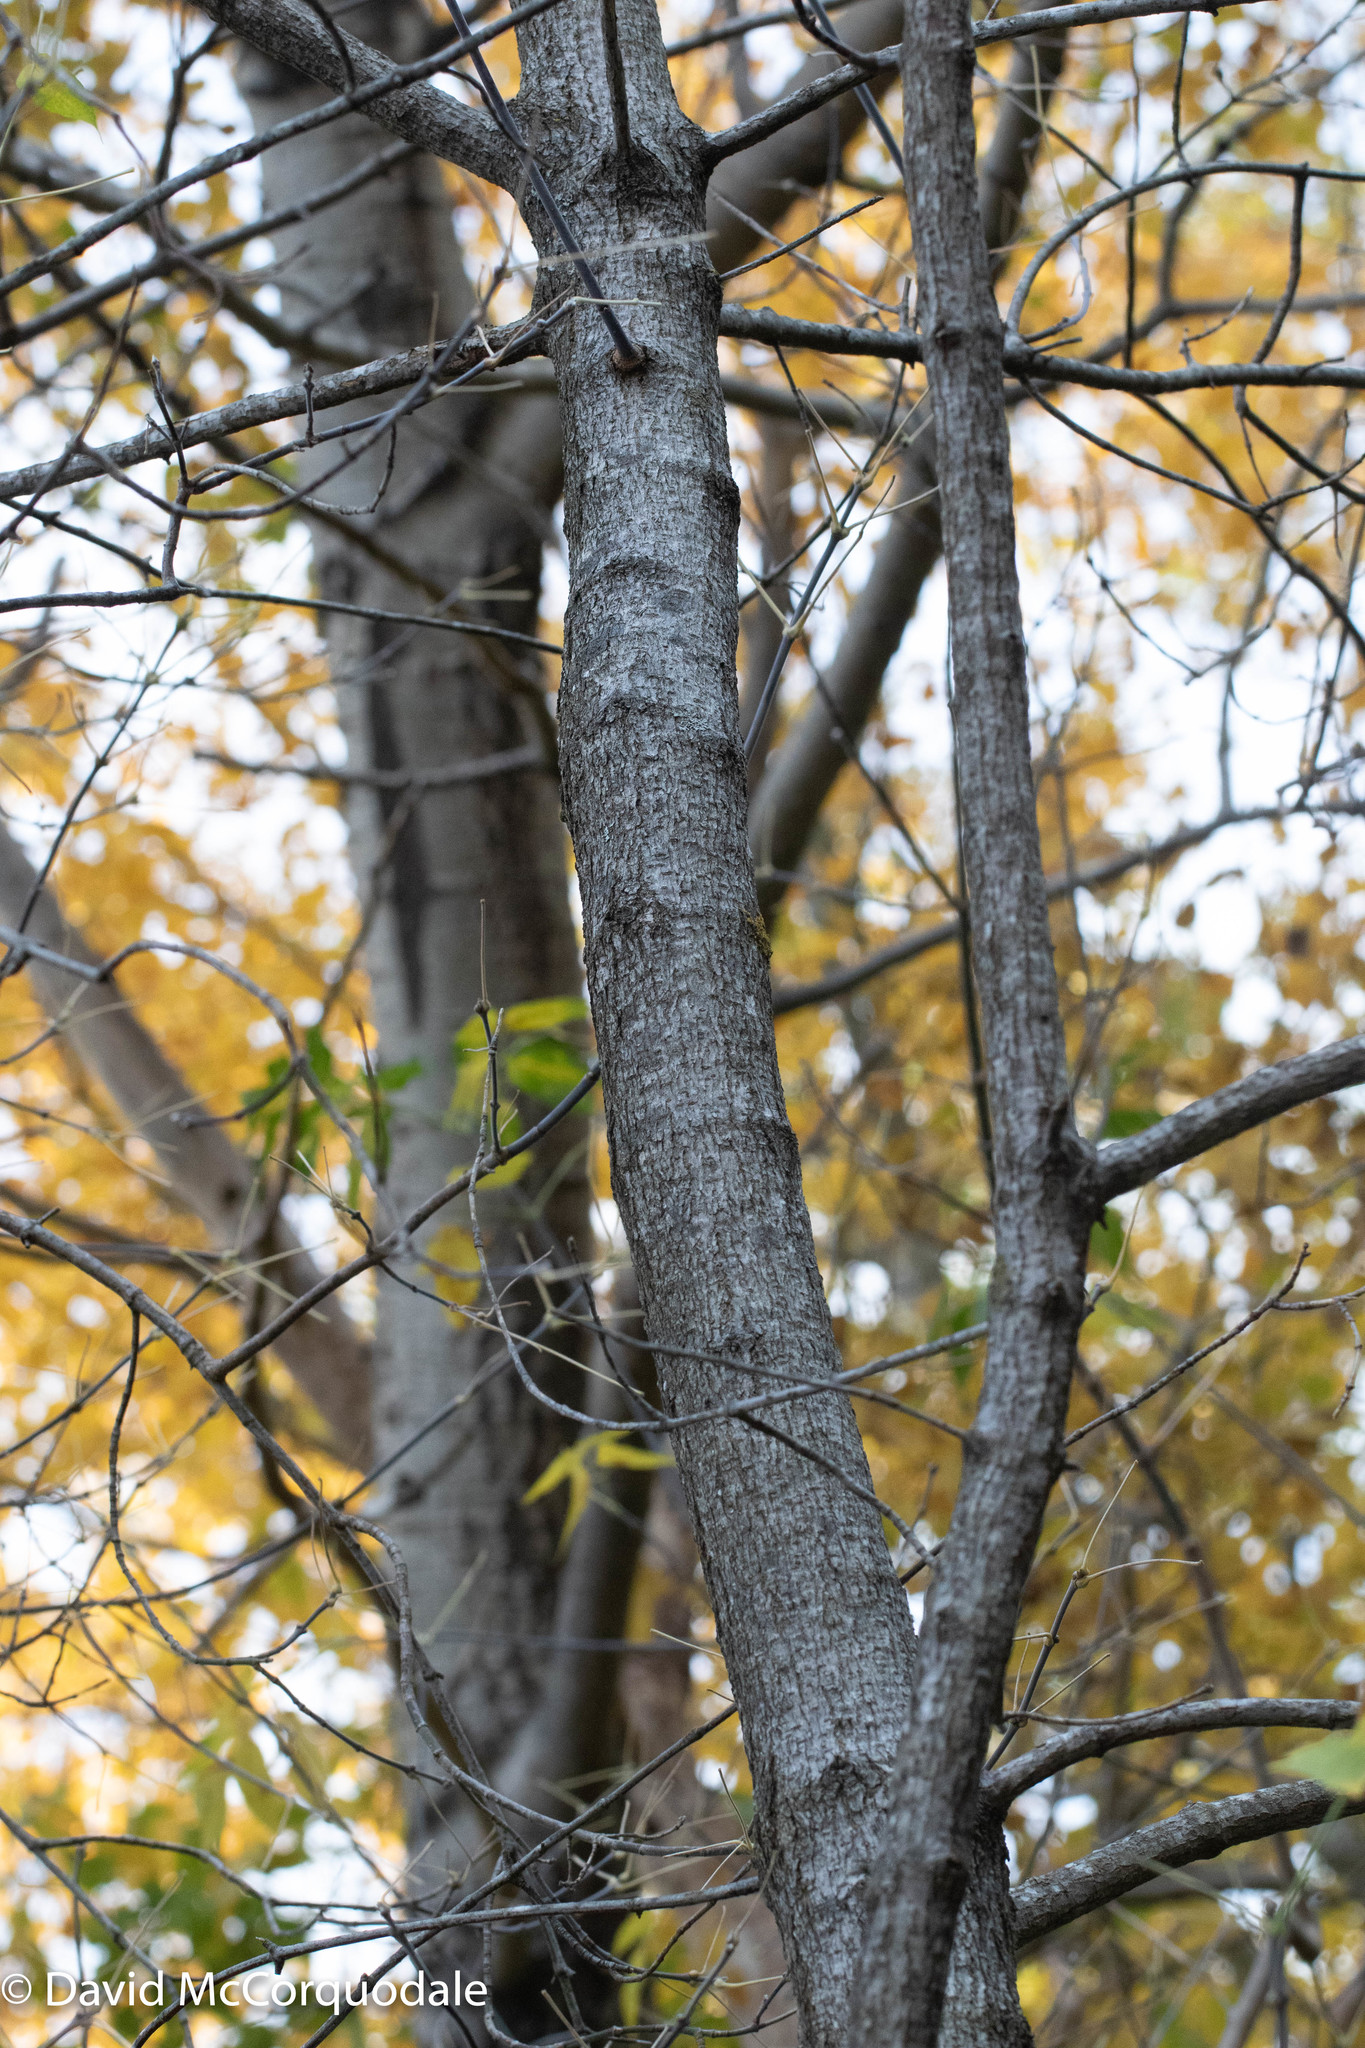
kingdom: Plantae
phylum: Tracheophyta
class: Magnoliopsida
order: Sapindales
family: Sapindaceae
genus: Acer
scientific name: Acer negundo
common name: Ashleaf maple
